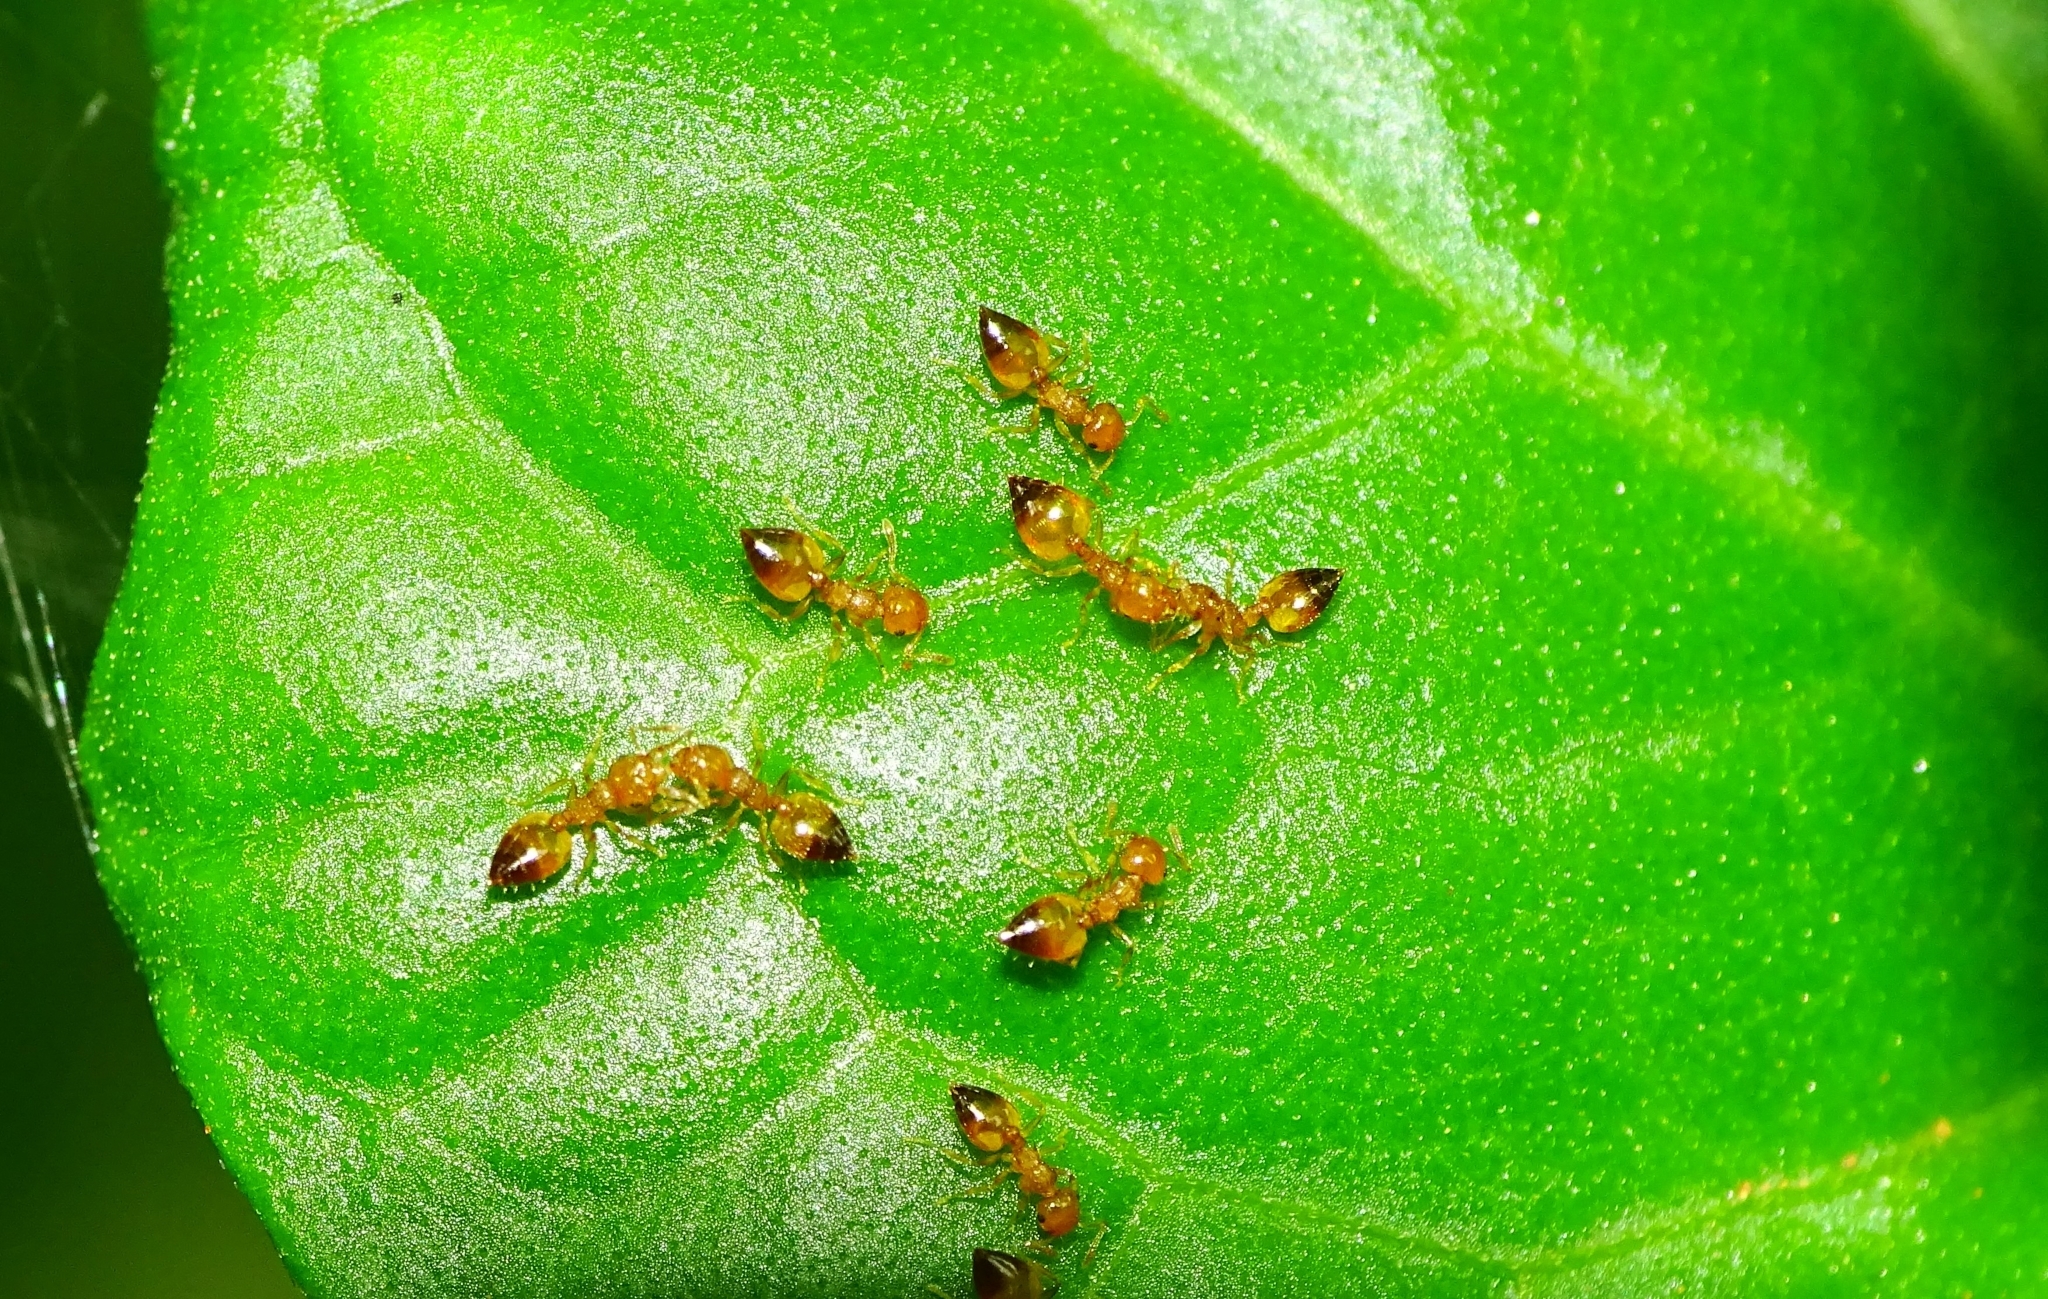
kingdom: Animalia
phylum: Arthropoda
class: Insecta
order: Hymenoptera
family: Formicidae
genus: Crematogaster
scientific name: Crematogaster biroi
